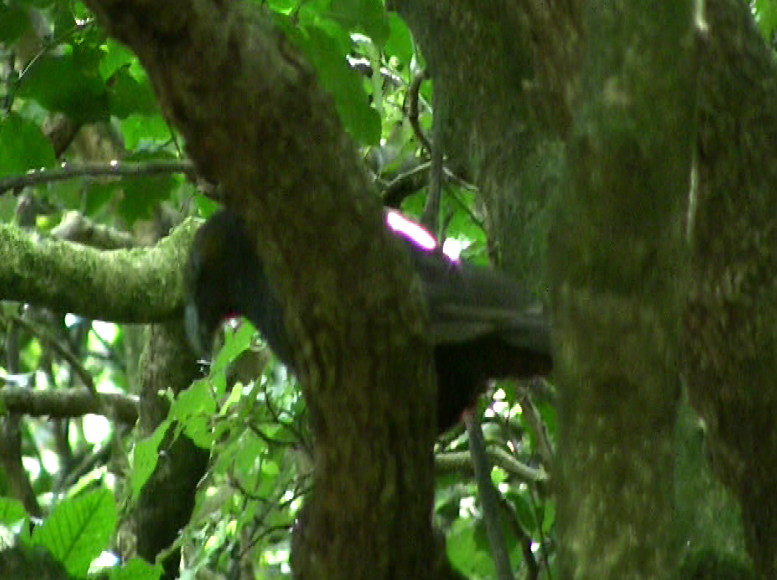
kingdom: Animalia
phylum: Chordata
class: Aves
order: Psittaciformes
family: Psittacidae
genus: Nestor
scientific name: Nestor meridionalis
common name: New zealand kaka
